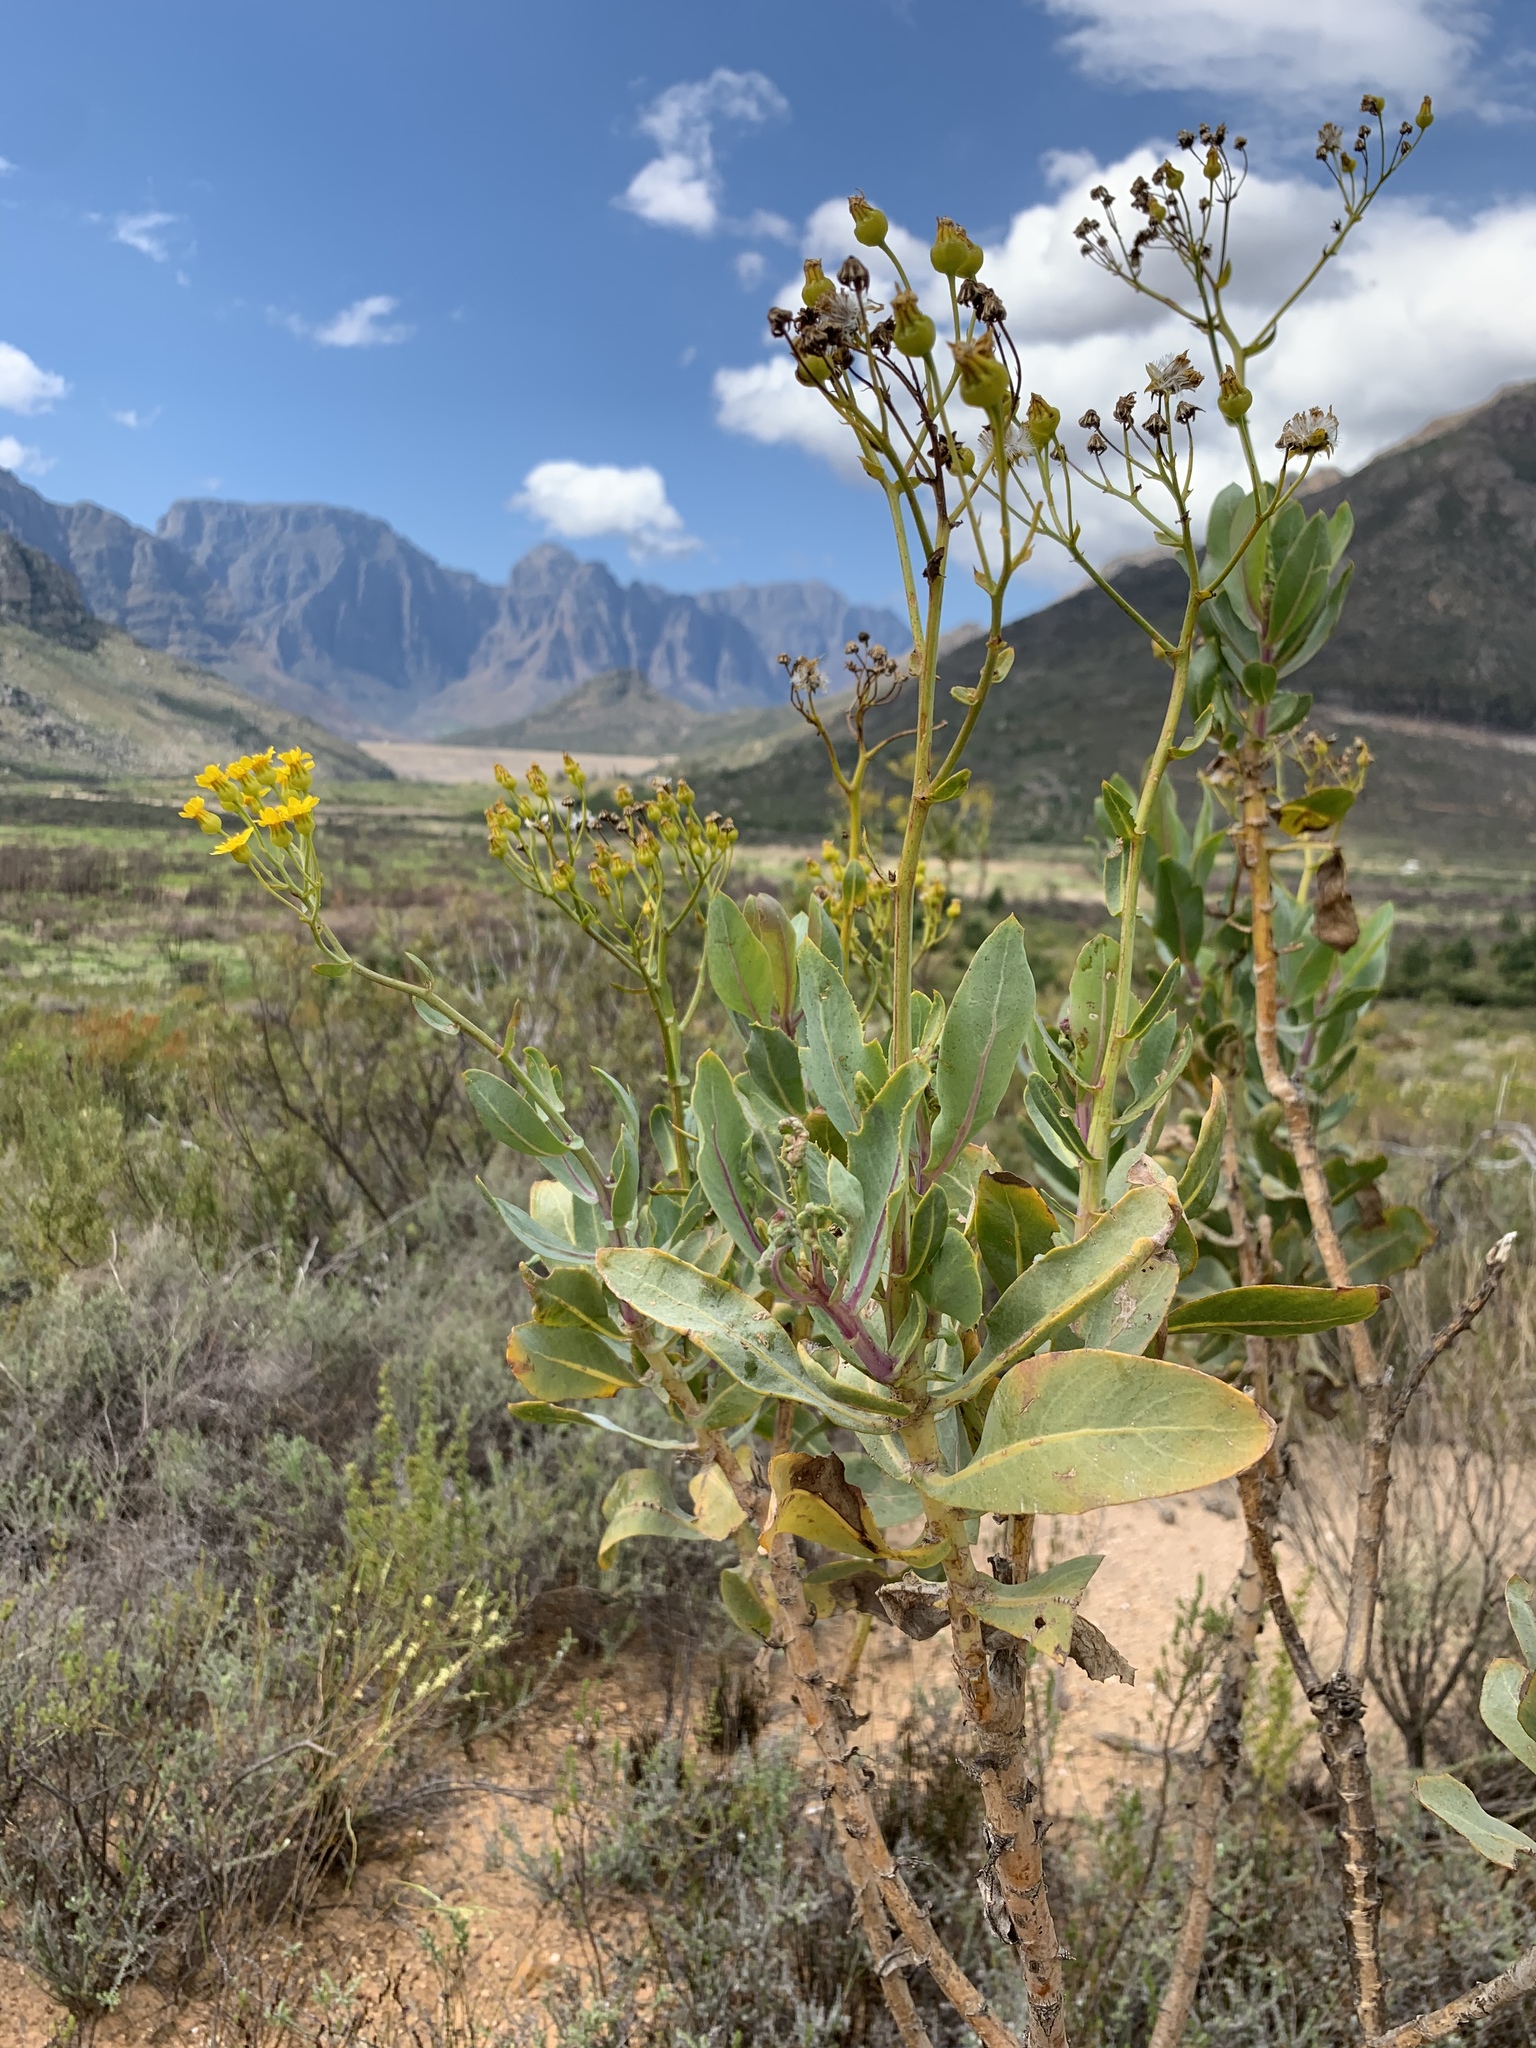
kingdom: Plantae
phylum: Tracheophyta
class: Magnoliopsida
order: Asterales
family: Asteraceae
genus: Othonna
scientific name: Othonna parviflora
